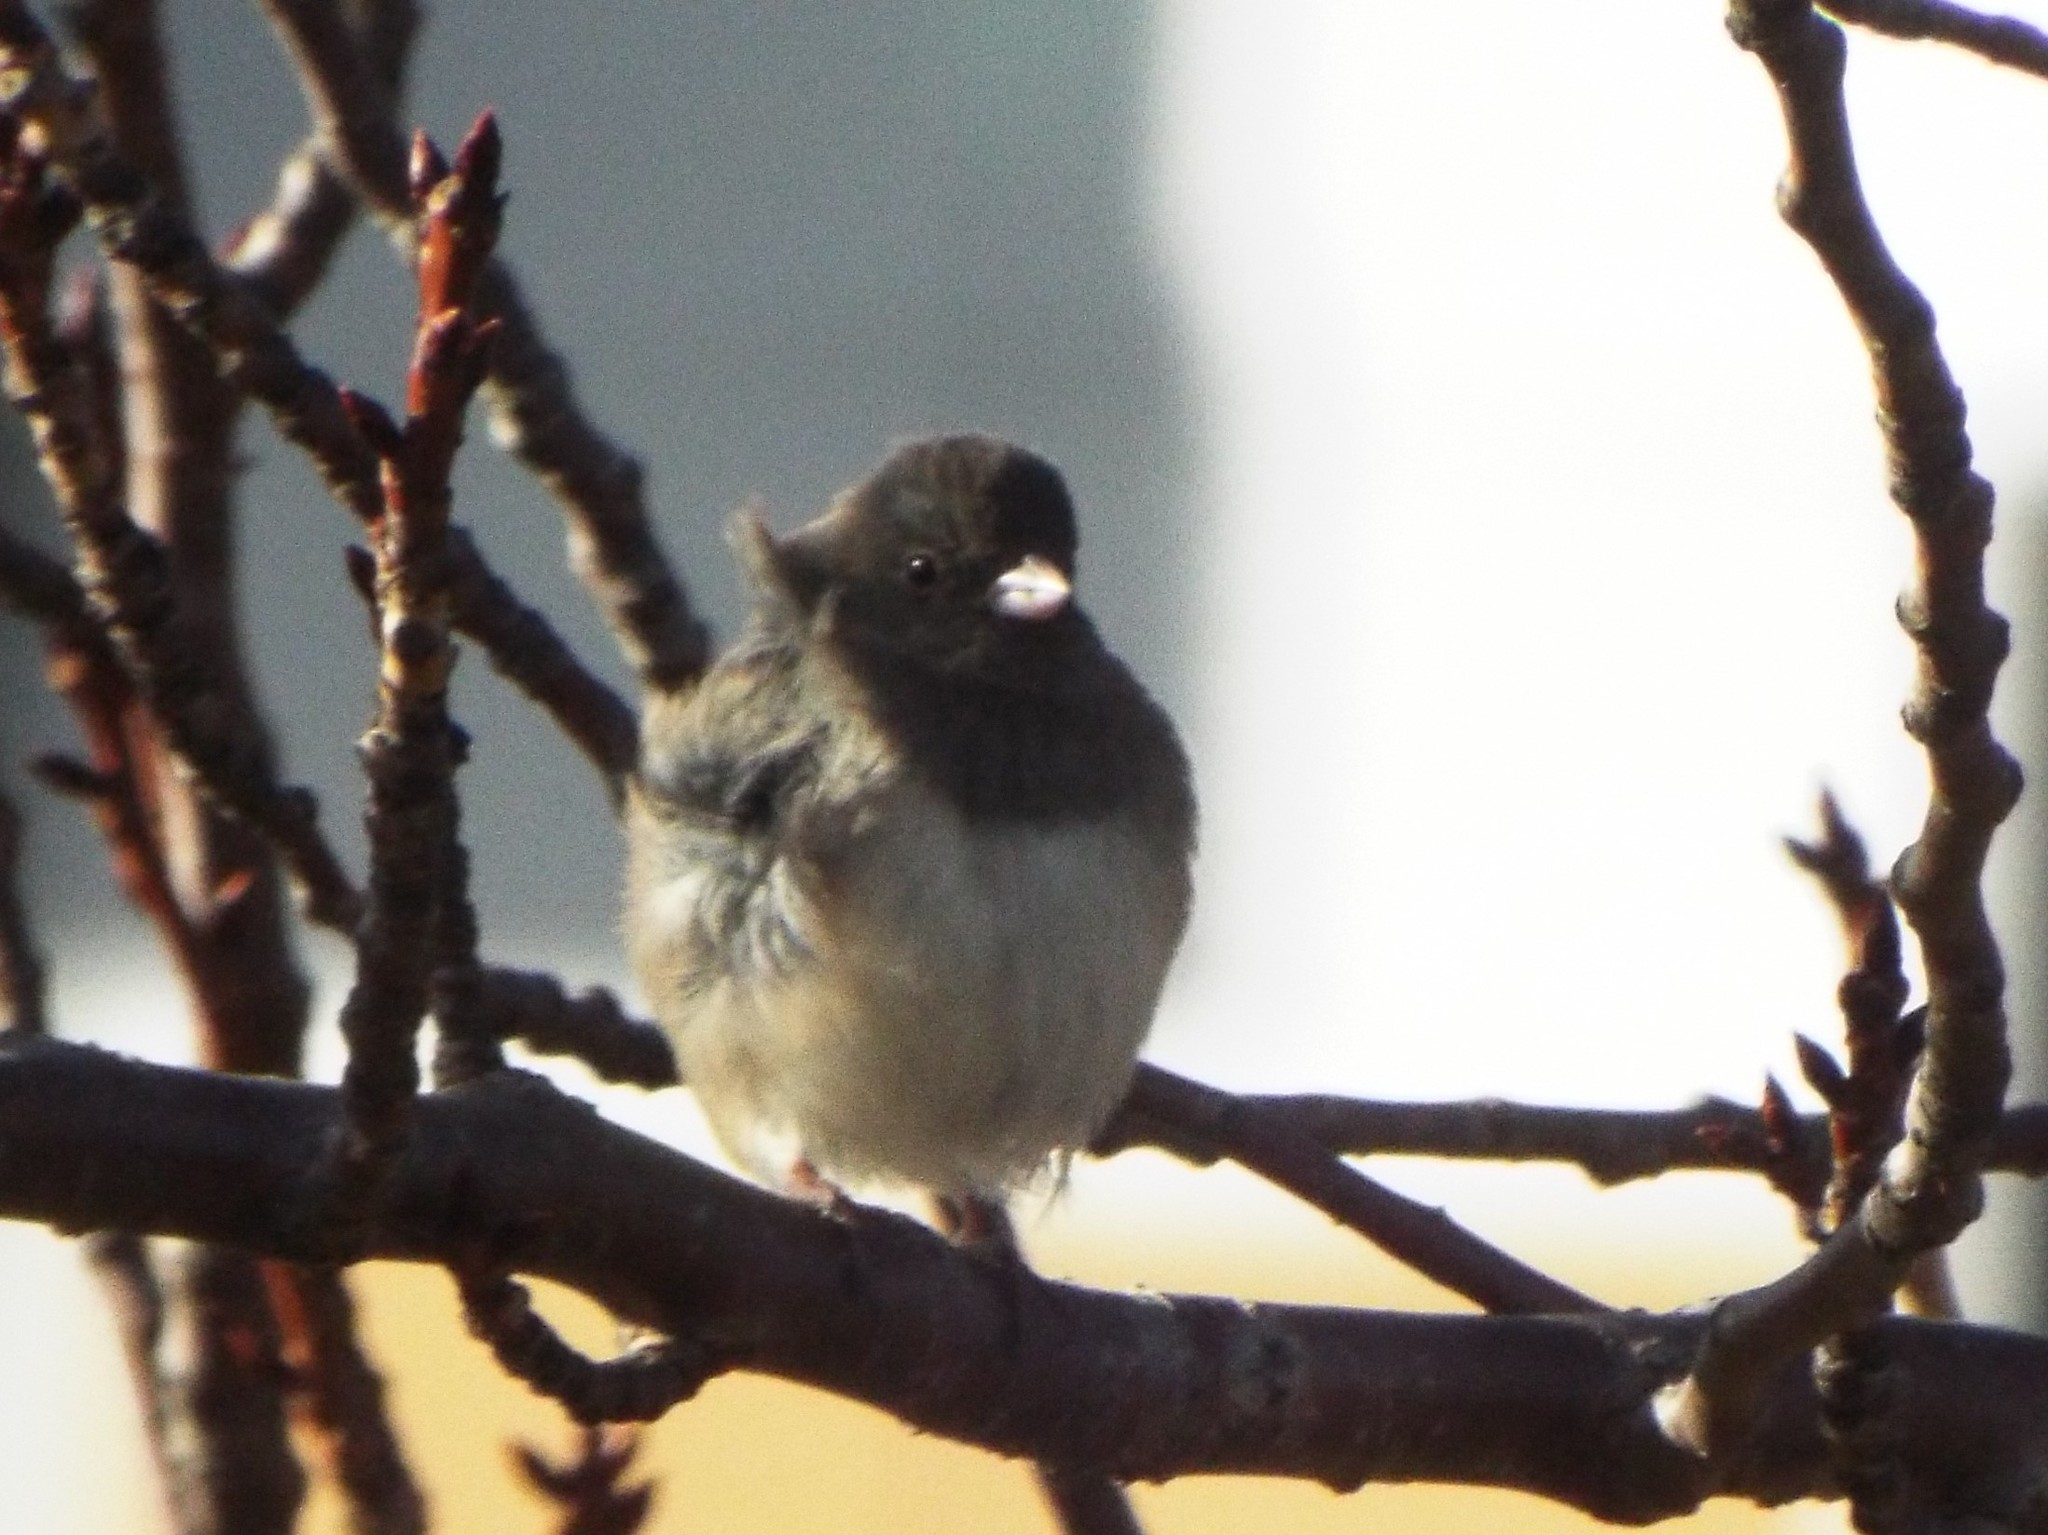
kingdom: Animalia
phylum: Chordata
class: Aves
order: Passeriformes
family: Passerellidae
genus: Junco
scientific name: Junco hyemalis
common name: Dark-eyed junco
